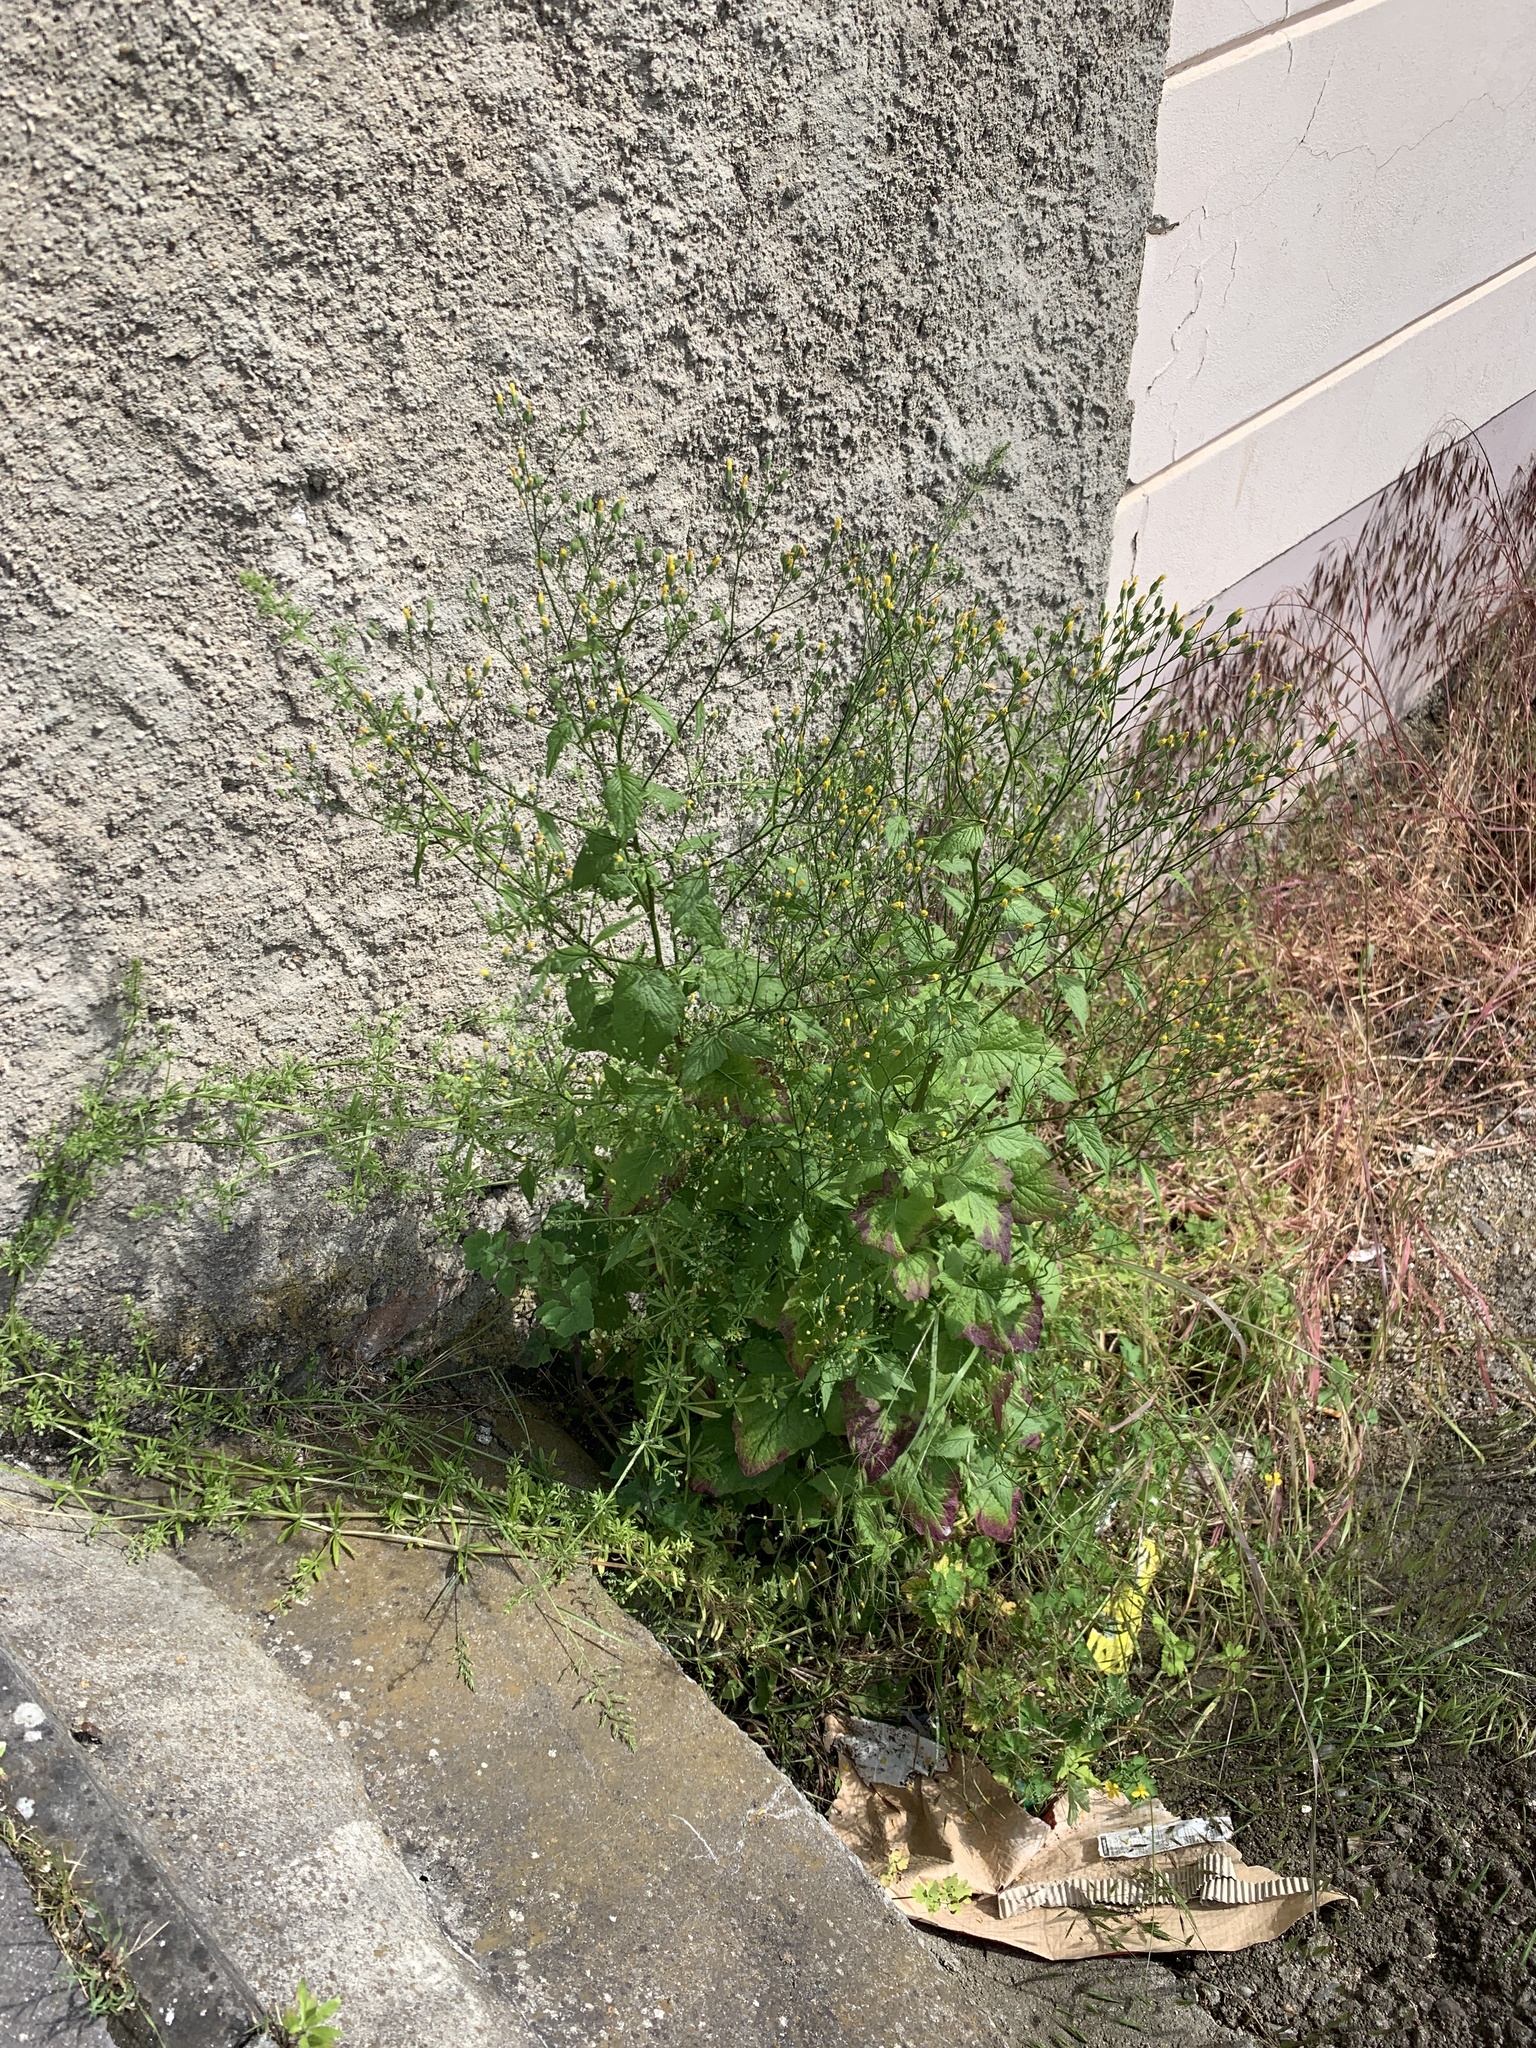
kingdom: Plantae
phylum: Tracheophyta
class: Magnoliopsida
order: Asterales
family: Asteraceae
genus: Lapsana
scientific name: Lapsana communis
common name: Nipplewort
